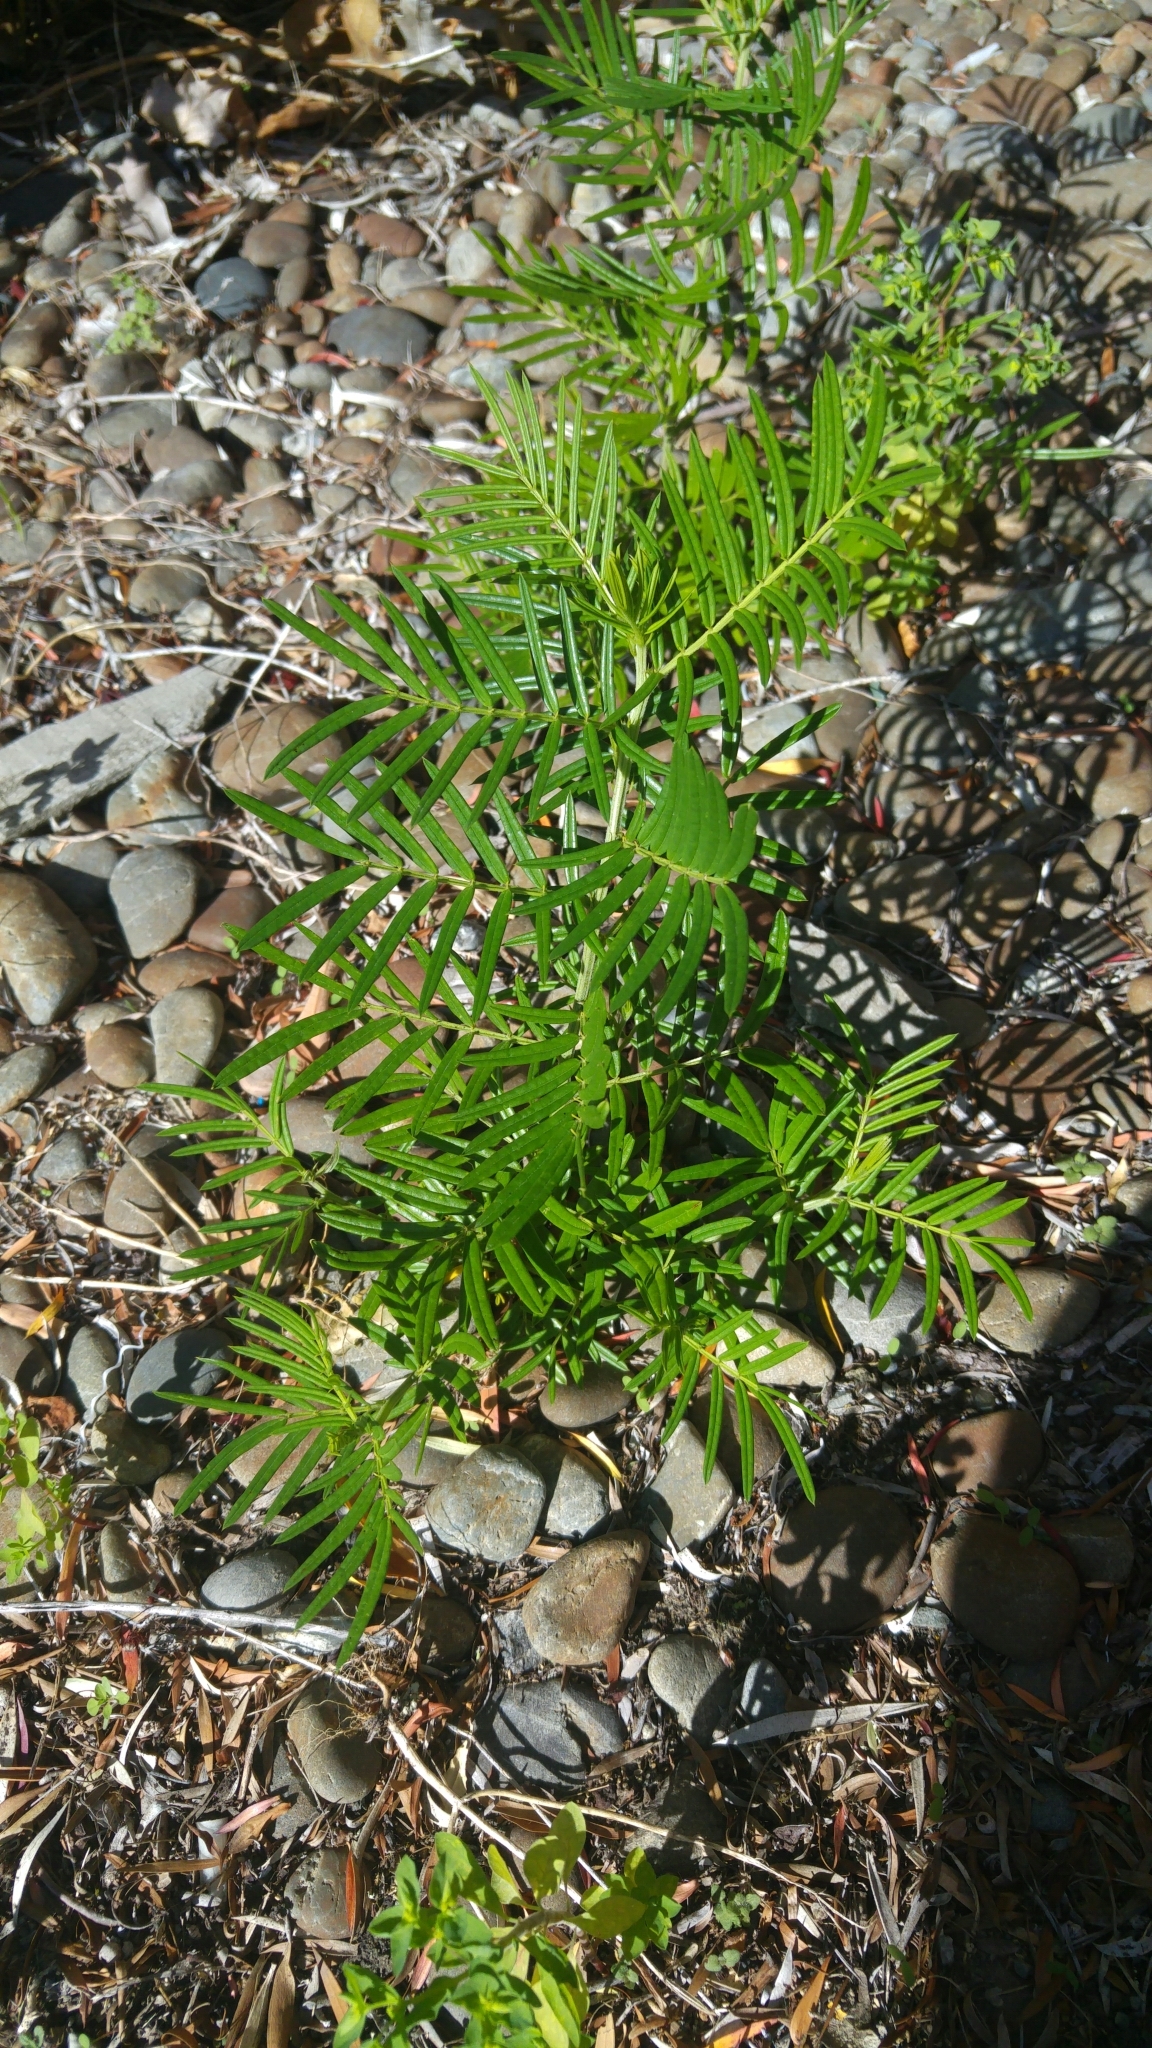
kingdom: Plantae
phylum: Tracheophyta
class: Magnoliopsida
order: Sapindales
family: Anacardiaceae
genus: Schinus
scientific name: Schinus molle
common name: Peruvian peppertree
